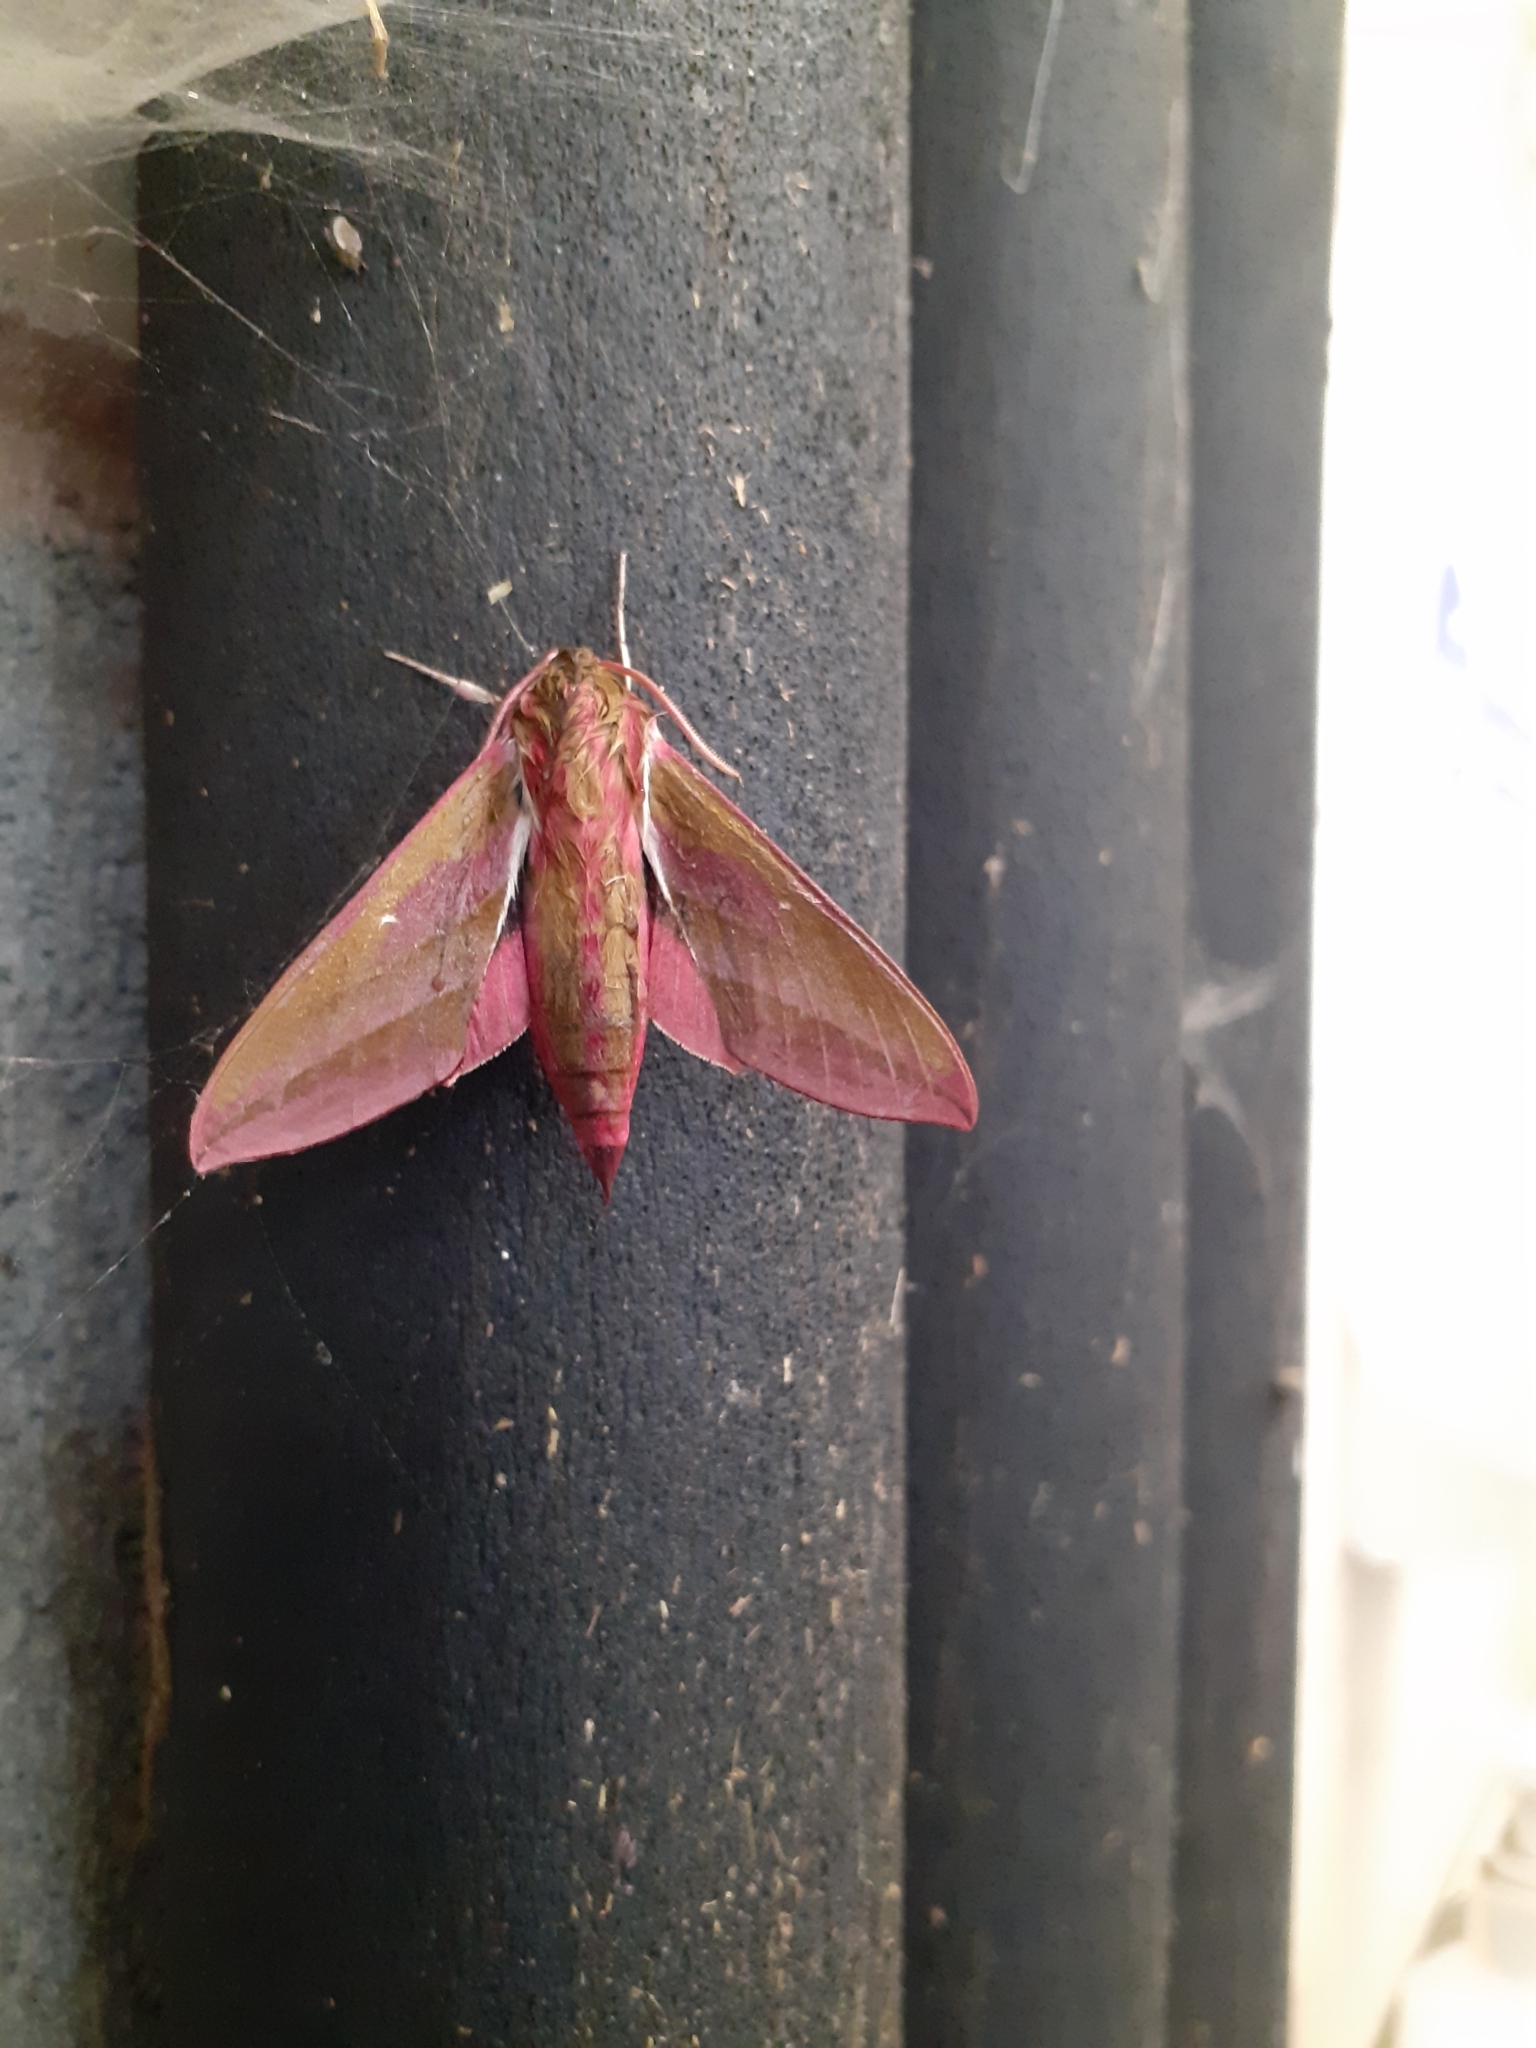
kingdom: Animalia
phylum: Arthropoda
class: Insecta
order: Lepidoptera
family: Sphingidae
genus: Deilephila
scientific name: Deilephila elpenor
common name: Elephant hawk-moth
